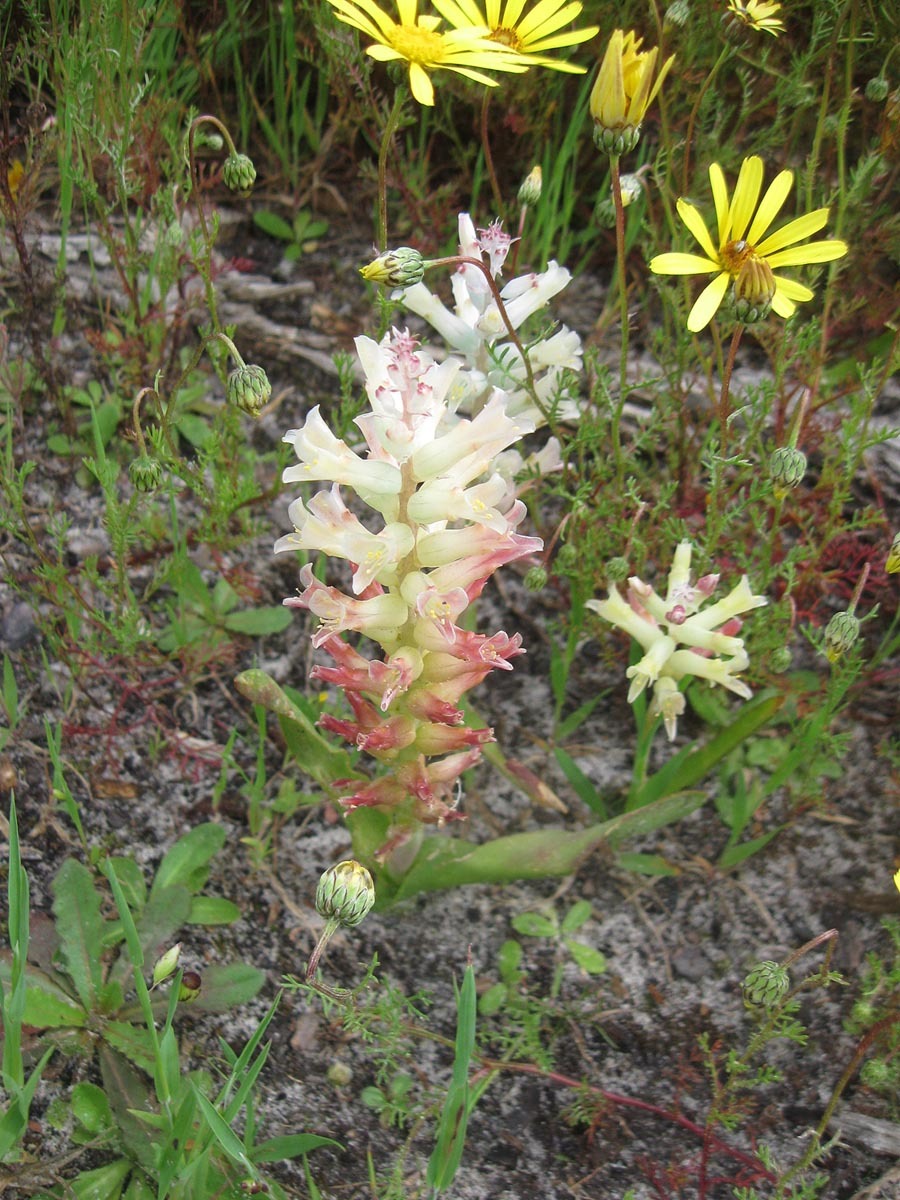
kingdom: Plantae
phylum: Tracheophyta
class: Liliopsida
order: Asparagales
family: Asparagaceae
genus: Lachenalia
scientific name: Lachenalia orchioides
